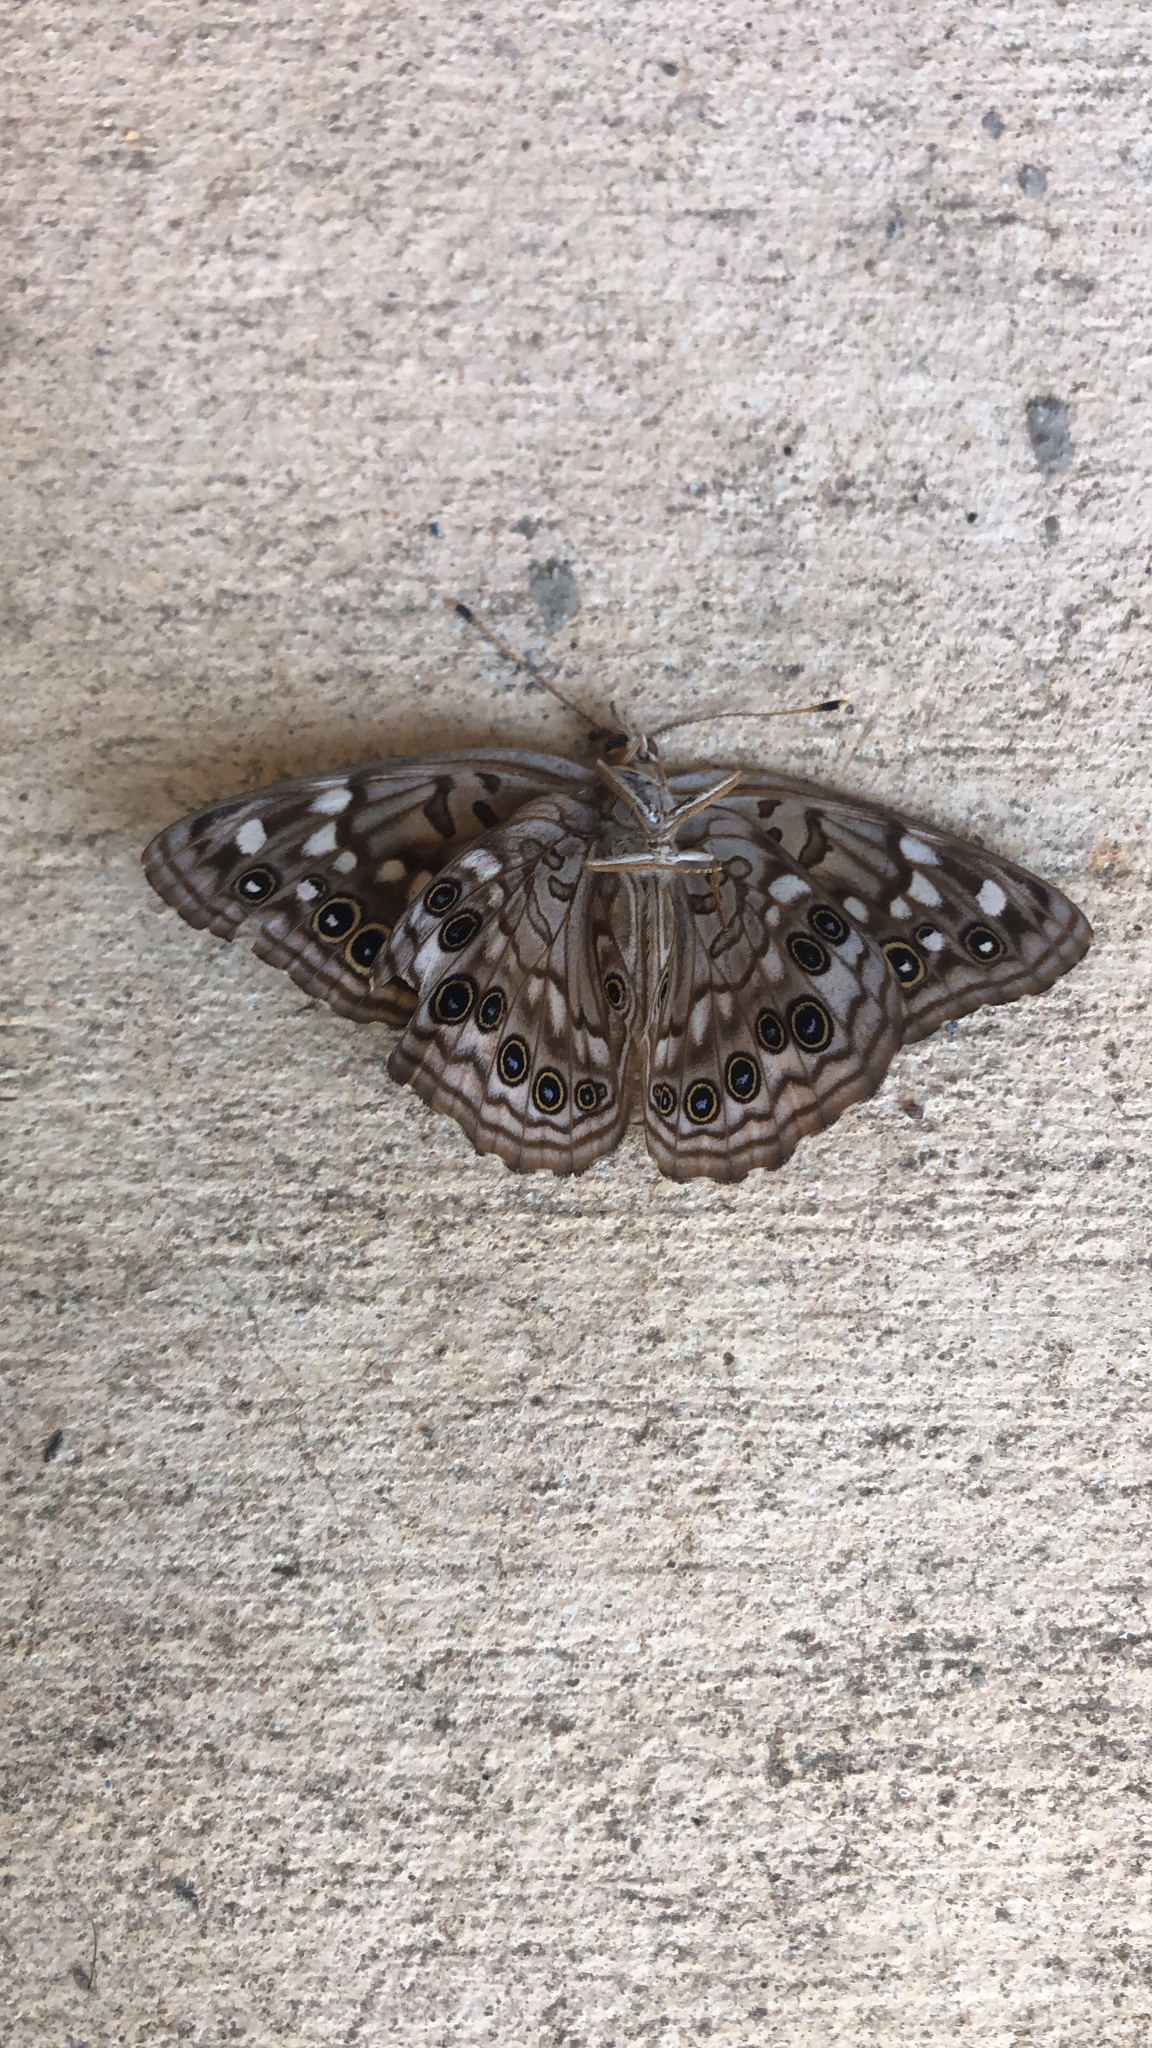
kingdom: Animalia
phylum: Arthropoda
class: Insecta
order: Lepidoptera
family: Nymphalidae
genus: Asterocampa
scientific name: Asterocampa celtis
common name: Hackberry emperor
